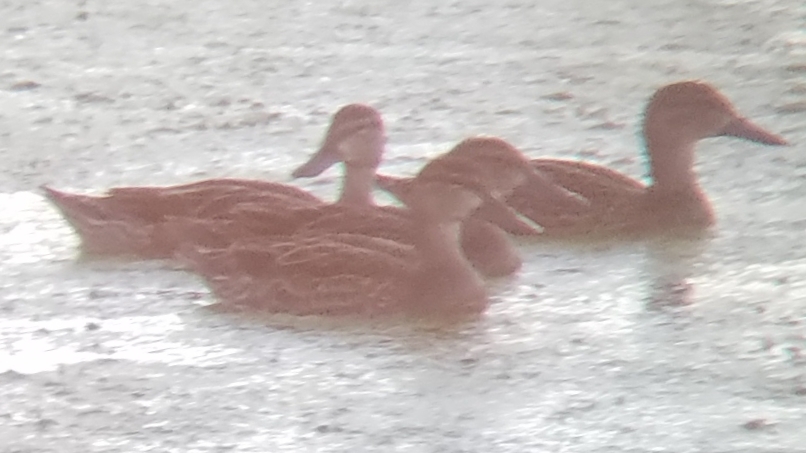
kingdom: Animalia
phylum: Chordata
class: Aves
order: Anseriformes
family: Anatidae
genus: Anas
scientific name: Anas platyrhynchos
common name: Mallard
